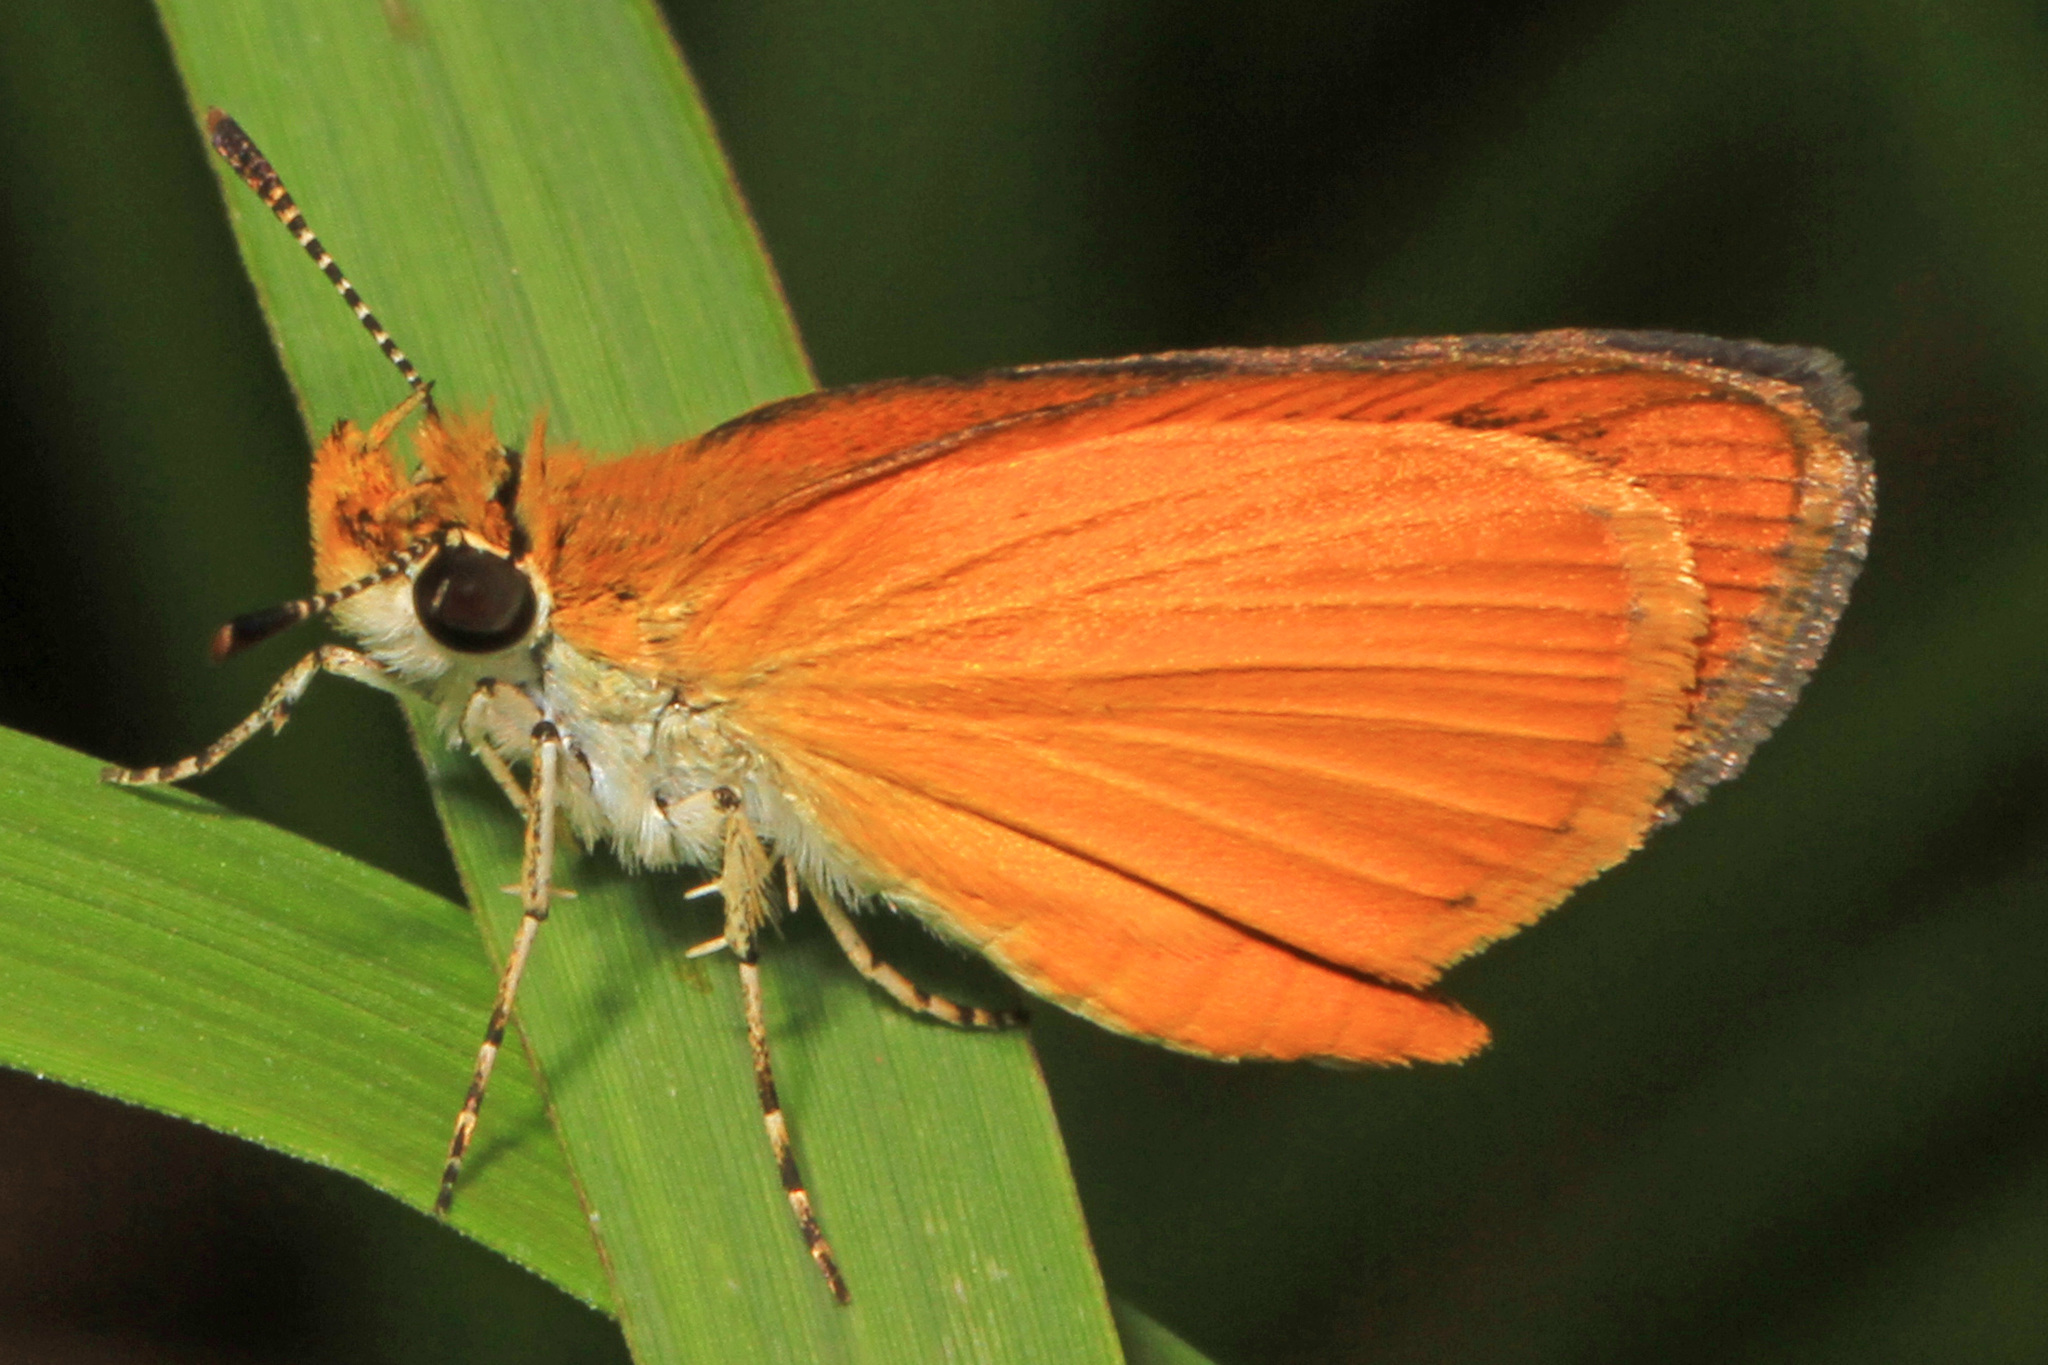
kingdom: Animalia
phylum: Arthropoda
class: Insecta
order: Lepidoptera
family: Hesperiidae
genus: Ancyloxypha
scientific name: Ancyloxypha numitor
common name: Least skipper
